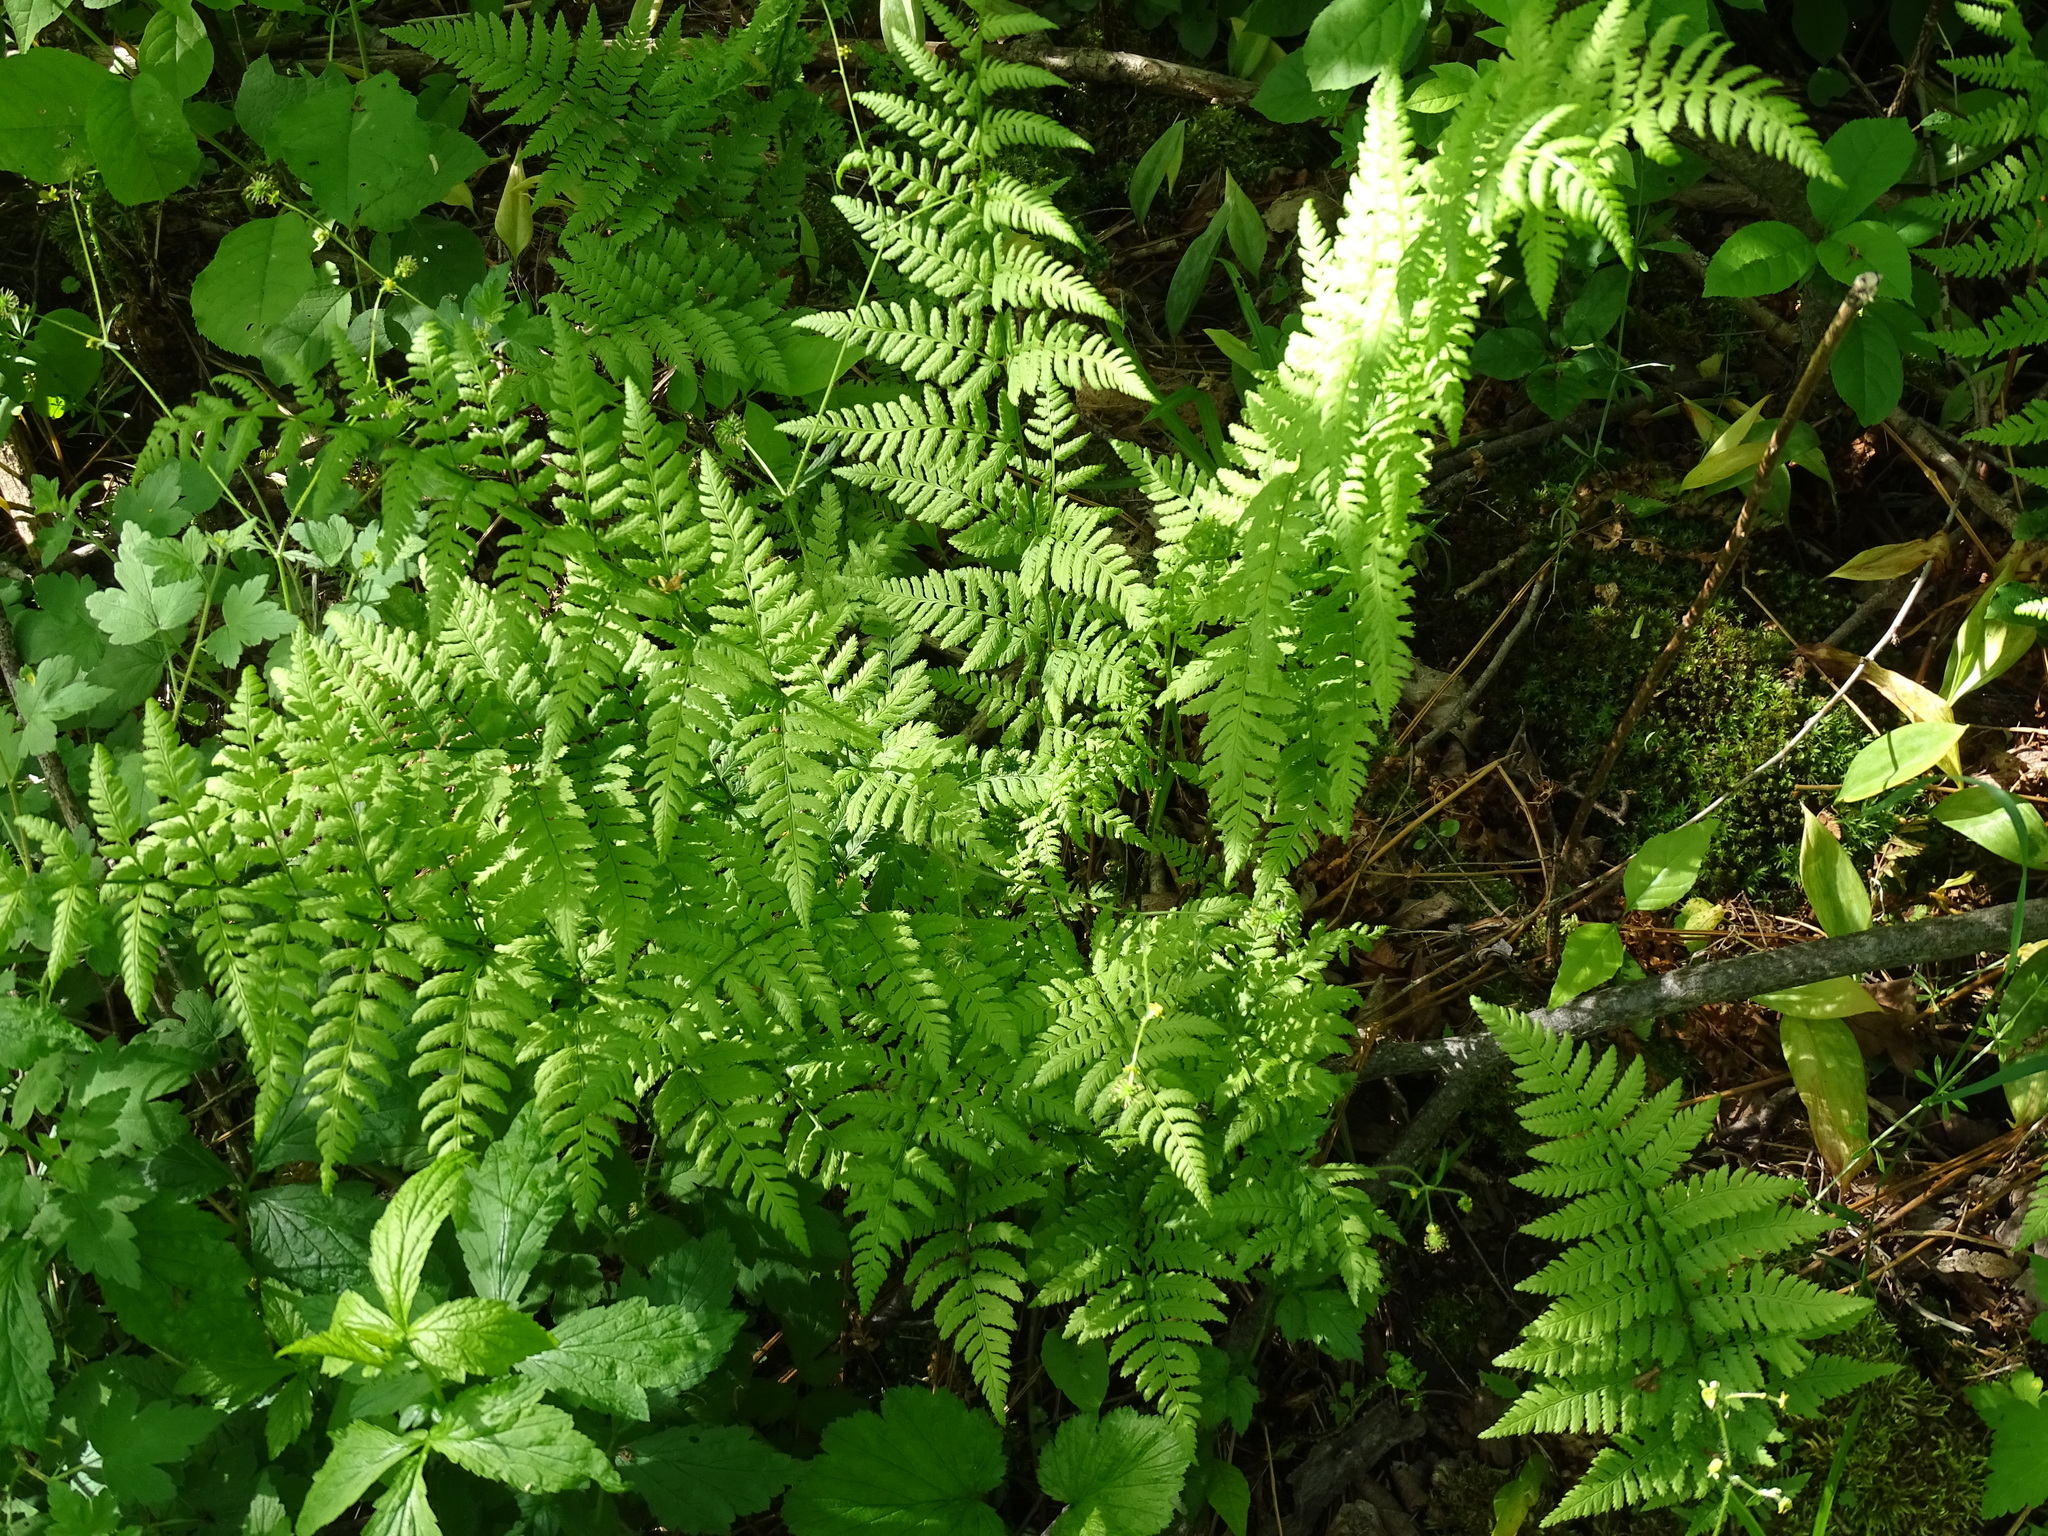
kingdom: Plantae
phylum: Tracheophyta
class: Polypodiopsida
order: Polypodiales
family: Dryopteridaceae
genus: Dryopteris
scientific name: Dryopteris carthusiana
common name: Narrow buckler-fern
